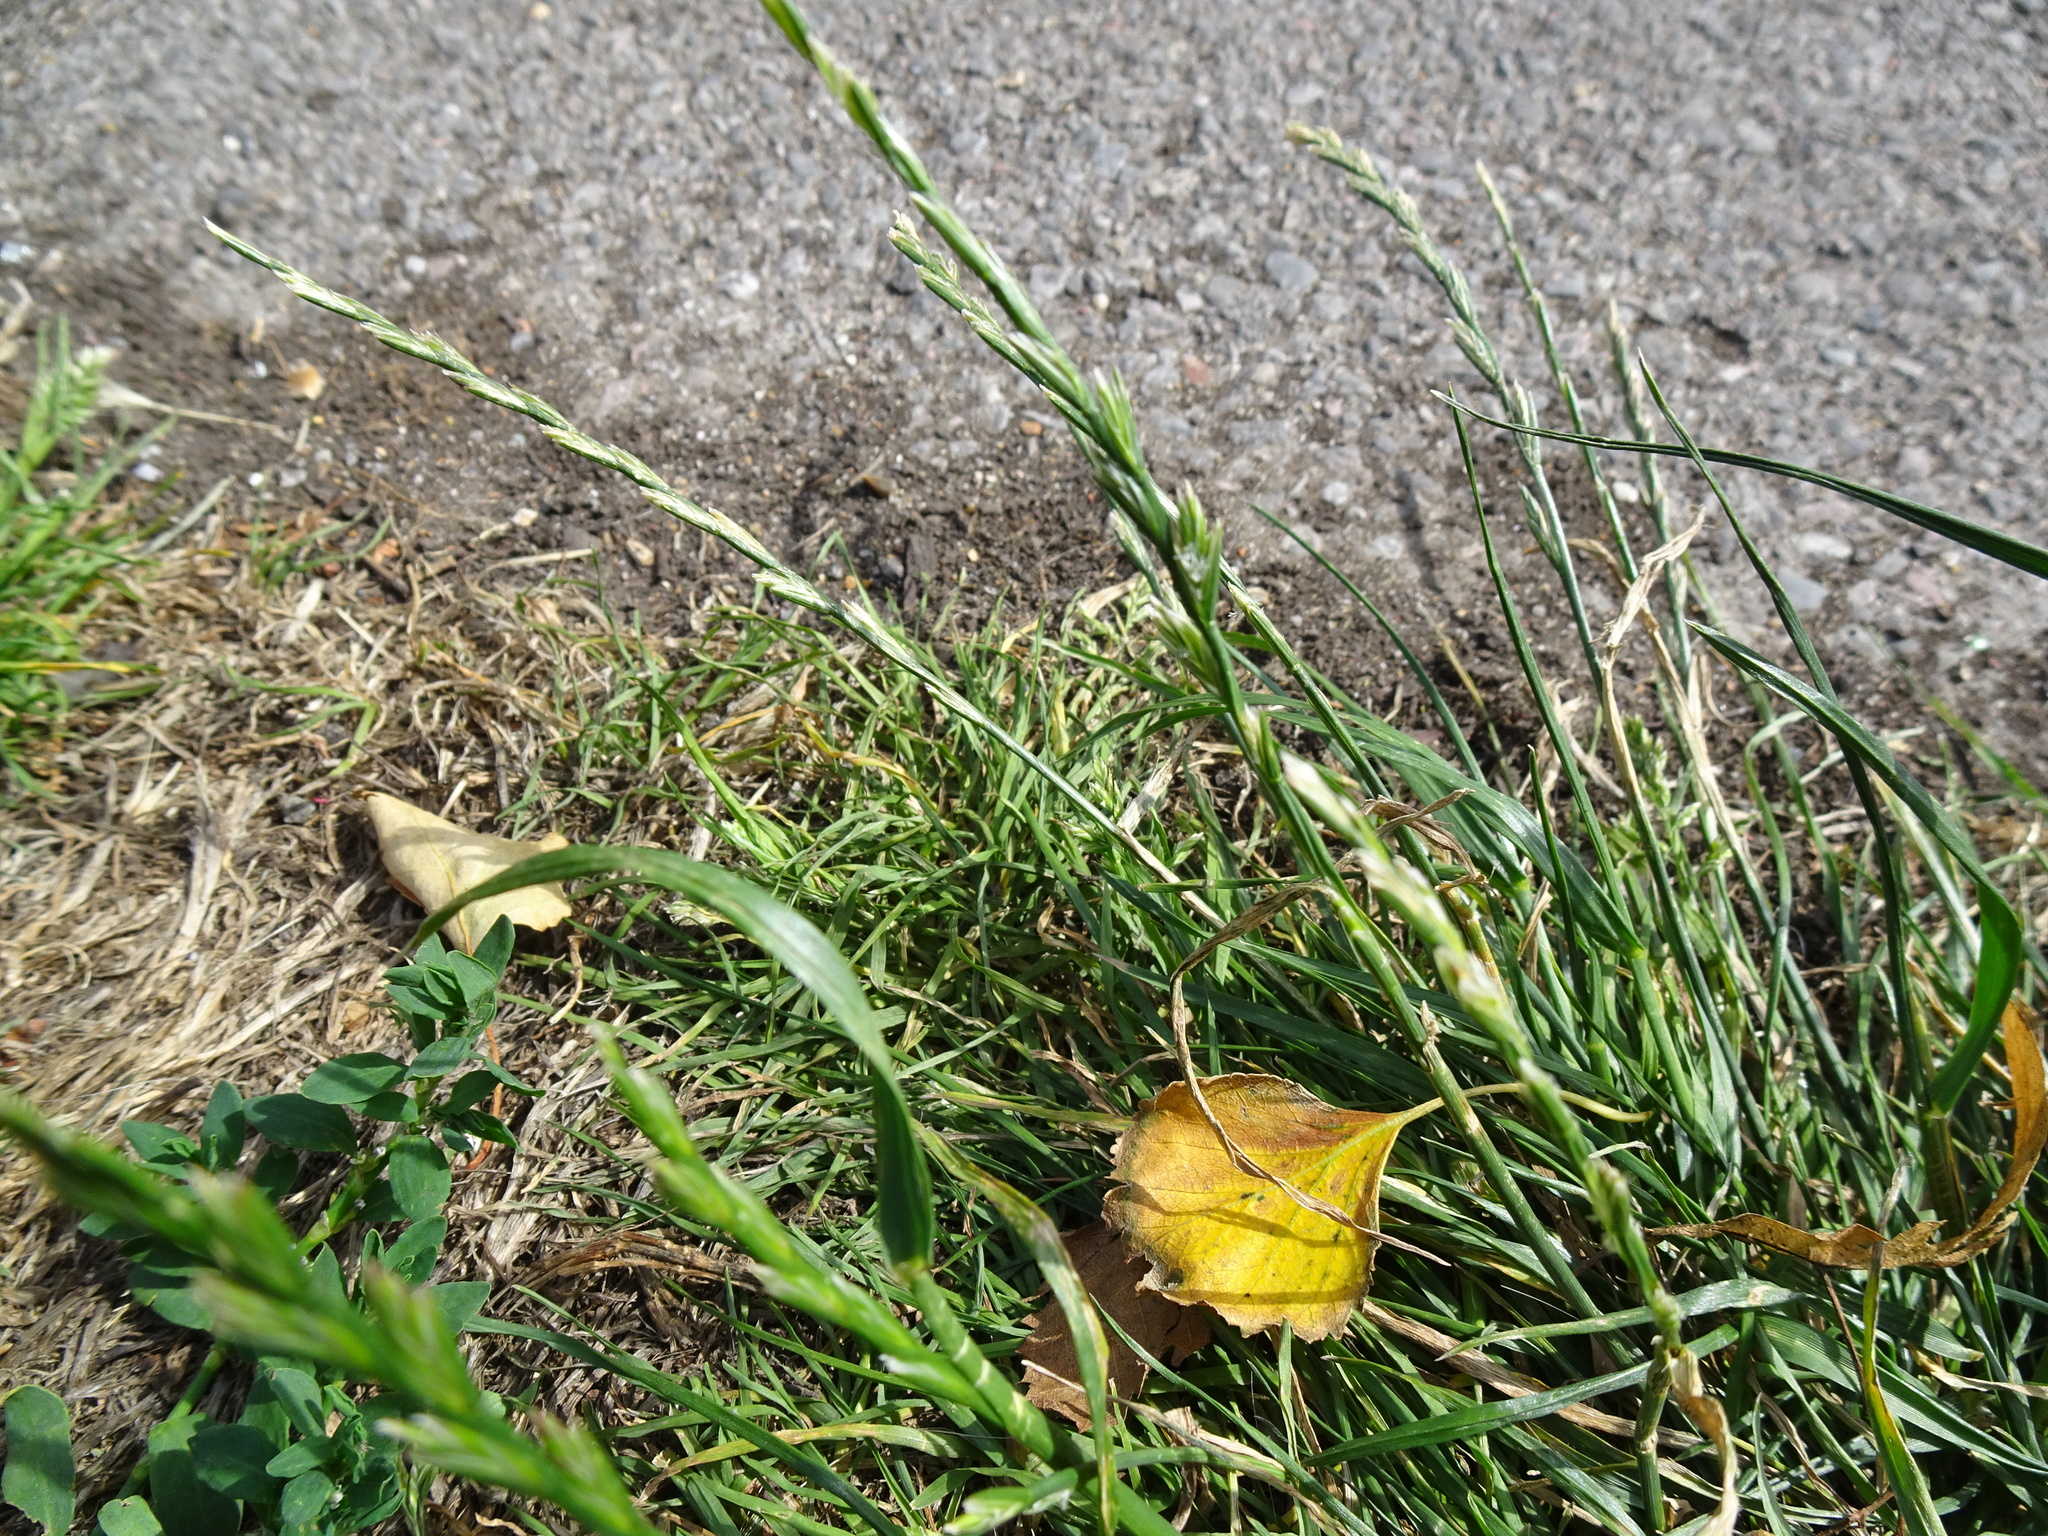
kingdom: Plantae
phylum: Tracheophyta
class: Liliopsida
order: Poales
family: Poaceae
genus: Lolium
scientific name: Lolium perenne
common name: Perennial ryegrass
